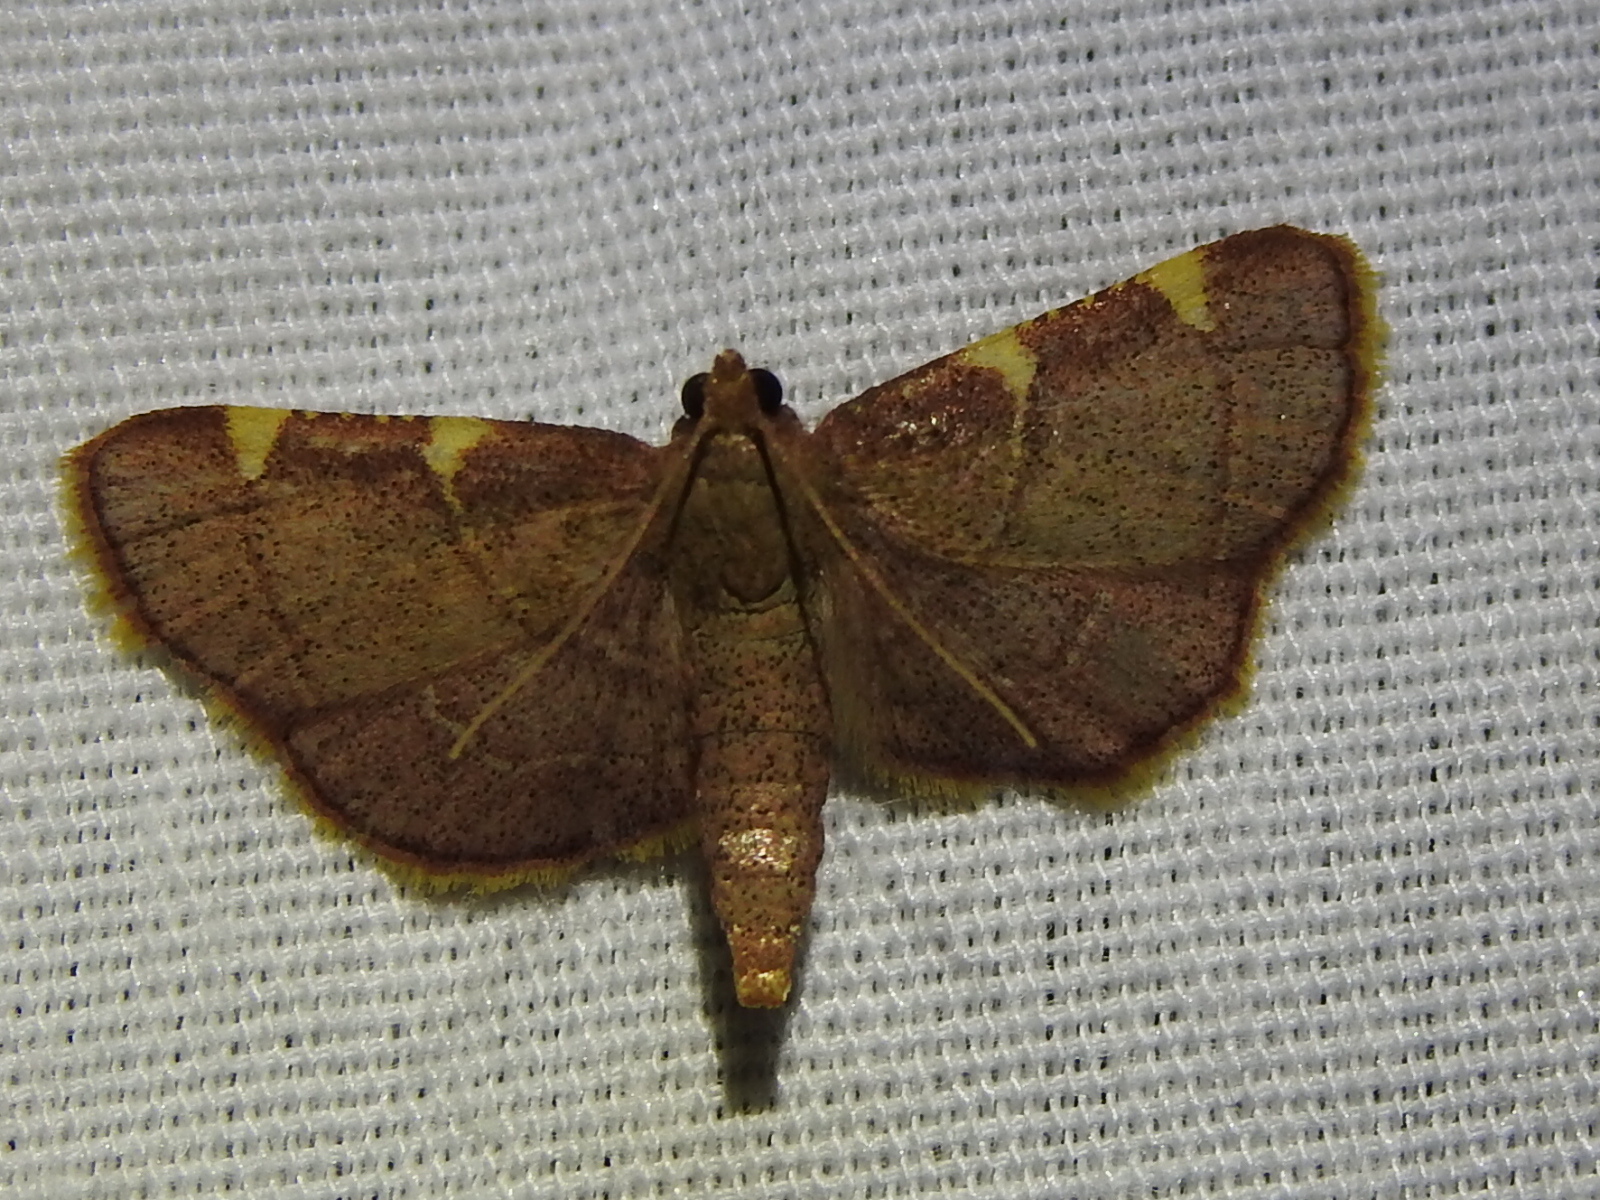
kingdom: Animalia
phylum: Arthropoda
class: Insecta
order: Lepidoptera
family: Pyralidae
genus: Hypsopygia
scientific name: Hypsopygia olinalis
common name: Yellow-fringed dolichomia moth
